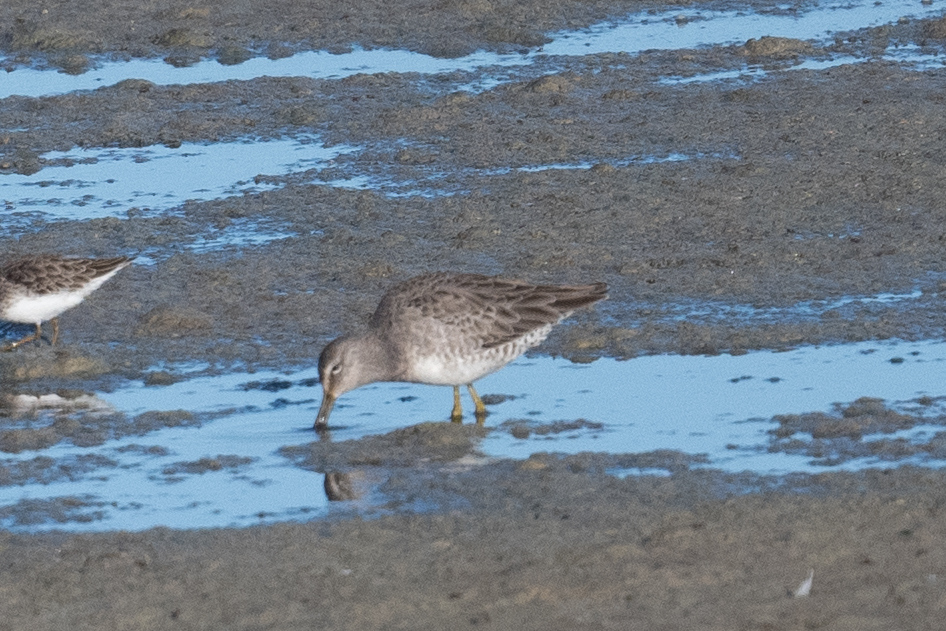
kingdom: Animalia
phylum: Chordata
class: Aves
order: Charadriiformes
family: Scolopacidae
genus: Limnodromus
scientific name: Limnodromus scolopaceus
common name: Long-billed dowitcher
